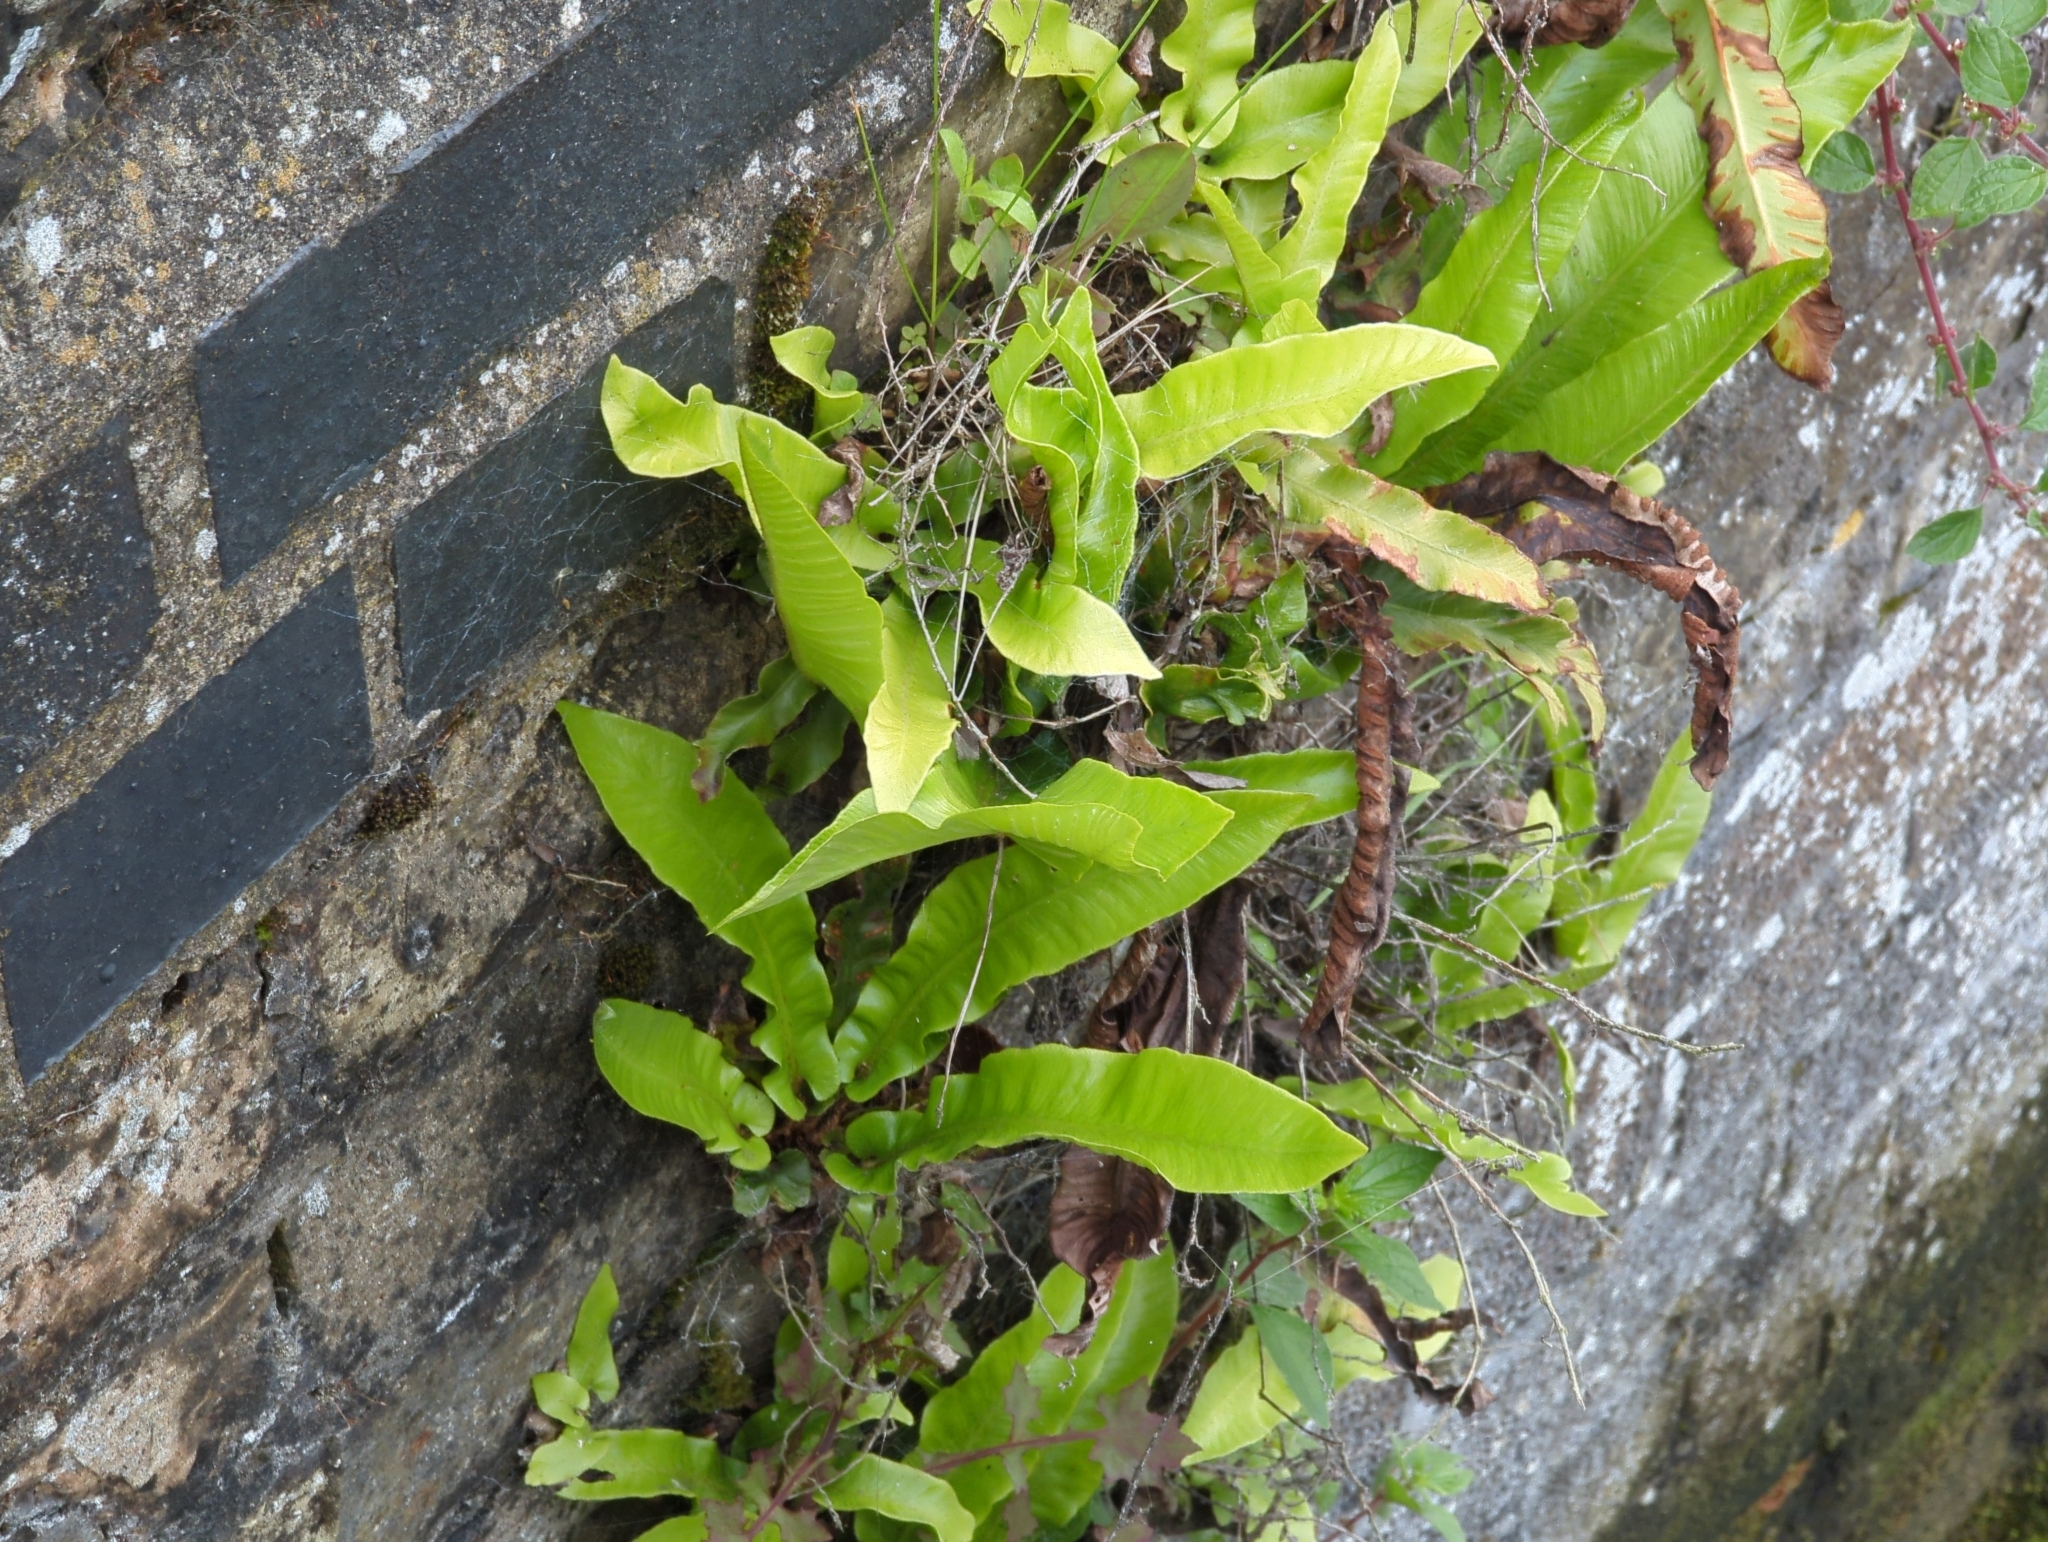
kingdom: Plantae
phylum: Tracheophyta
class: Polypodiopsida
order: Polypodiales
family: Aspleniaceae
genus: Asplenium
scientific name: Asplenium scolopendrium
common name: Hart's-tongue fern
